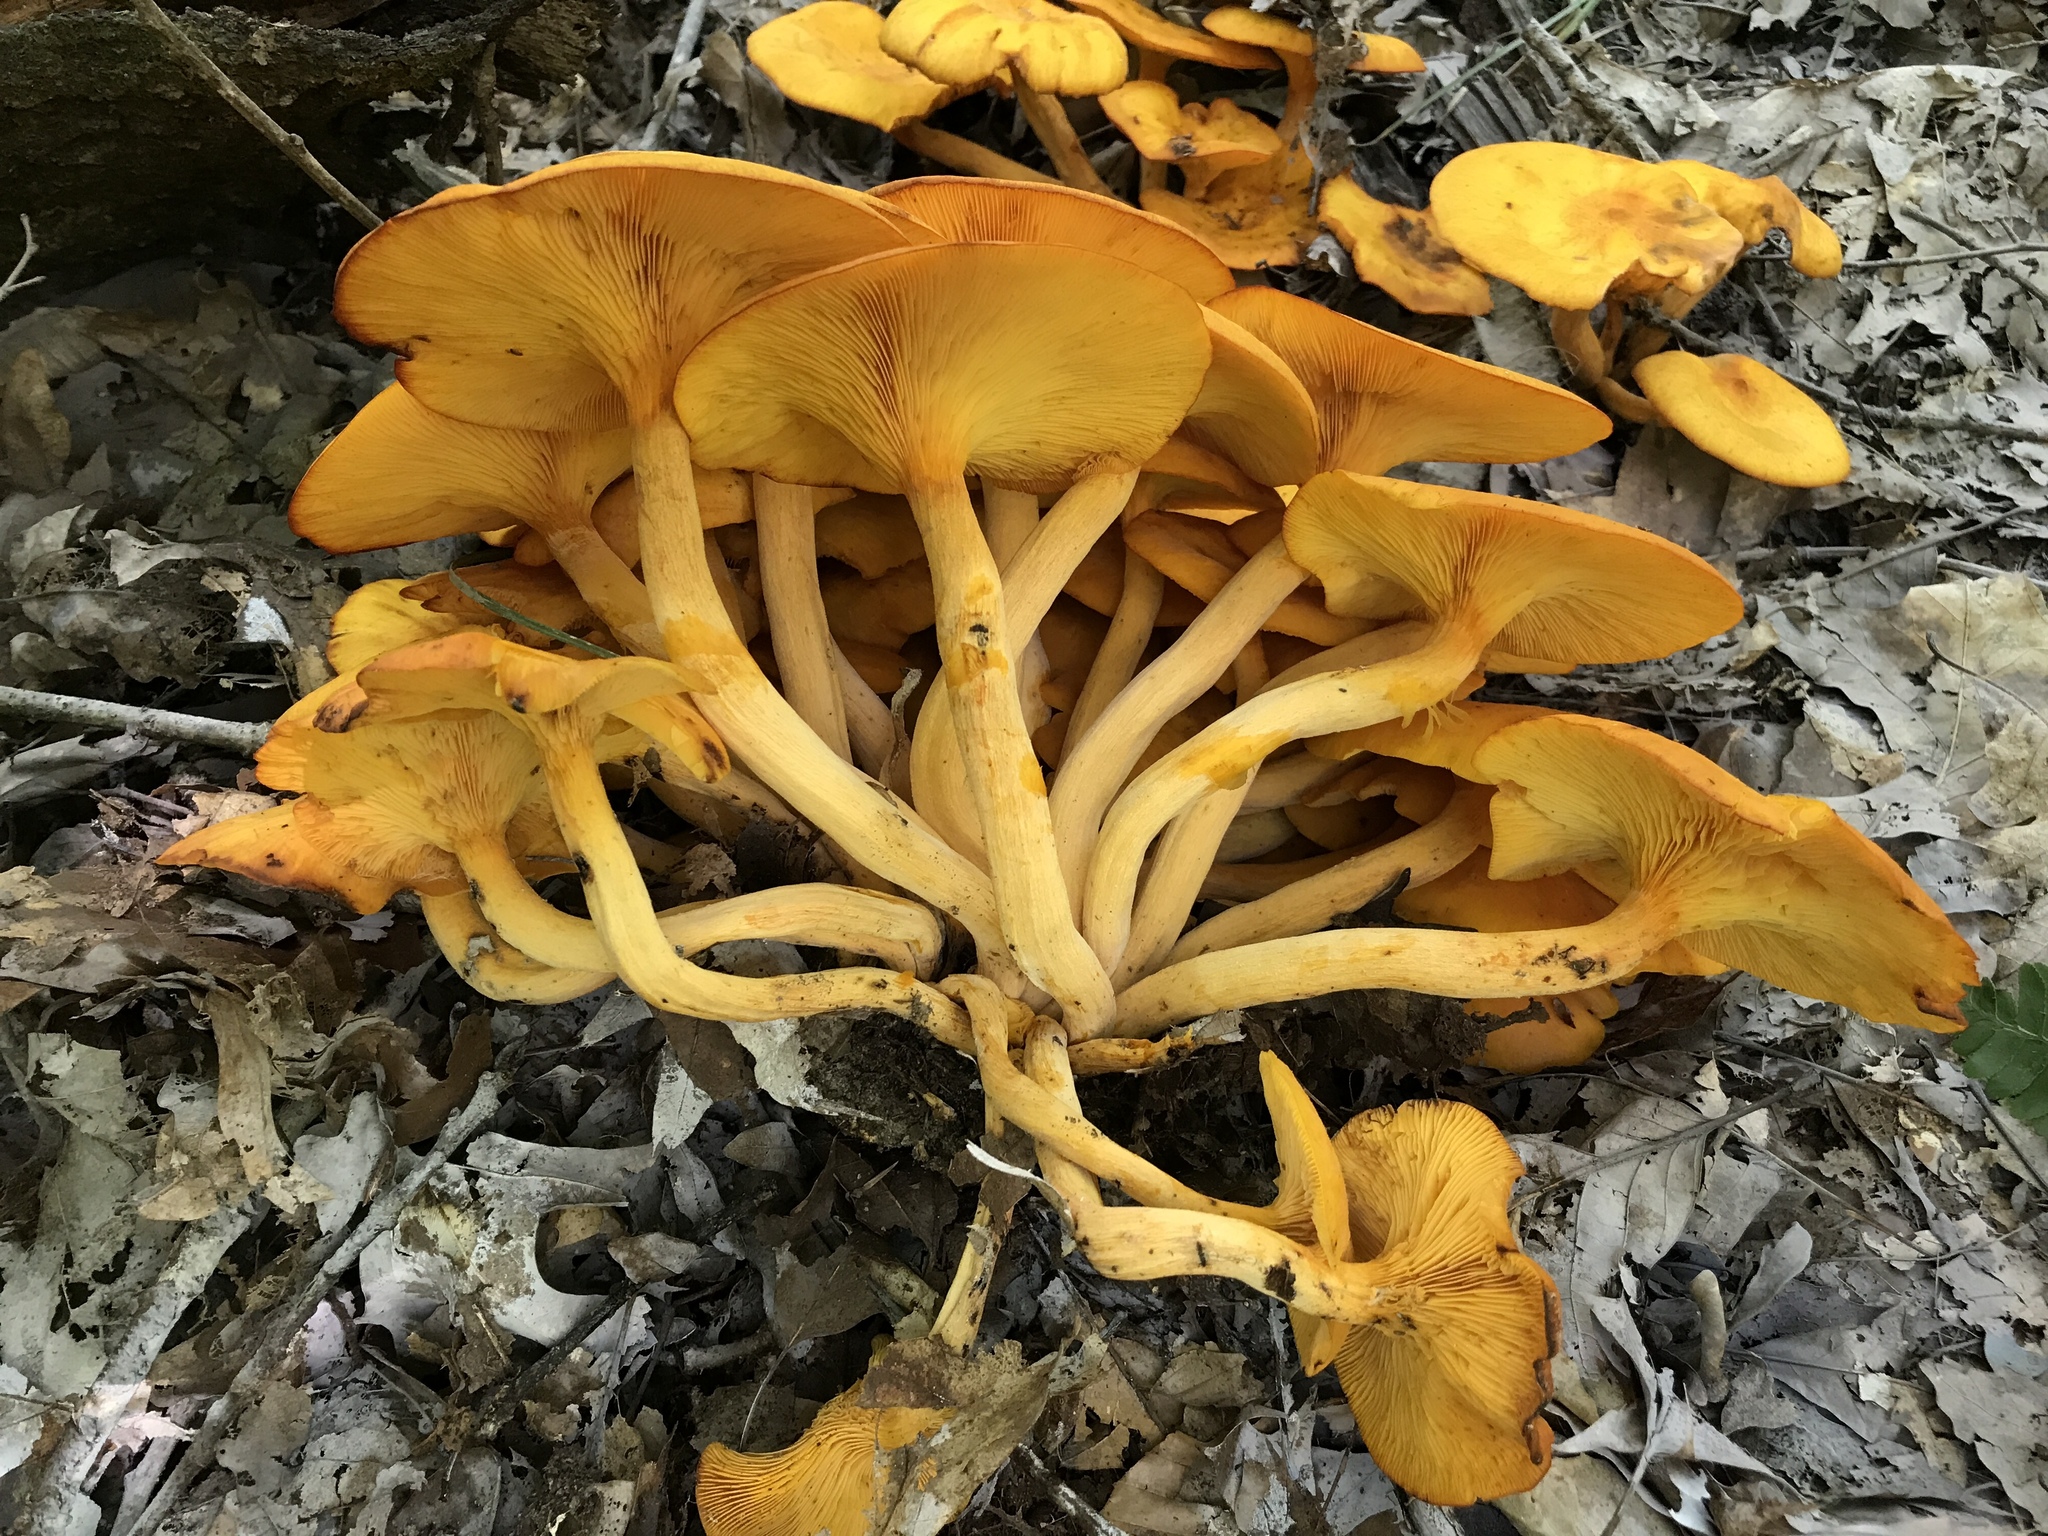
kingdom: Fungi
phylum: Basidiomycota
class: Agaricomycetes
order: Agaricales
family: Omphalotaceae
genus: Omphalotus
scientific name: Omphalotus illudens
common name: Jack o lantern
